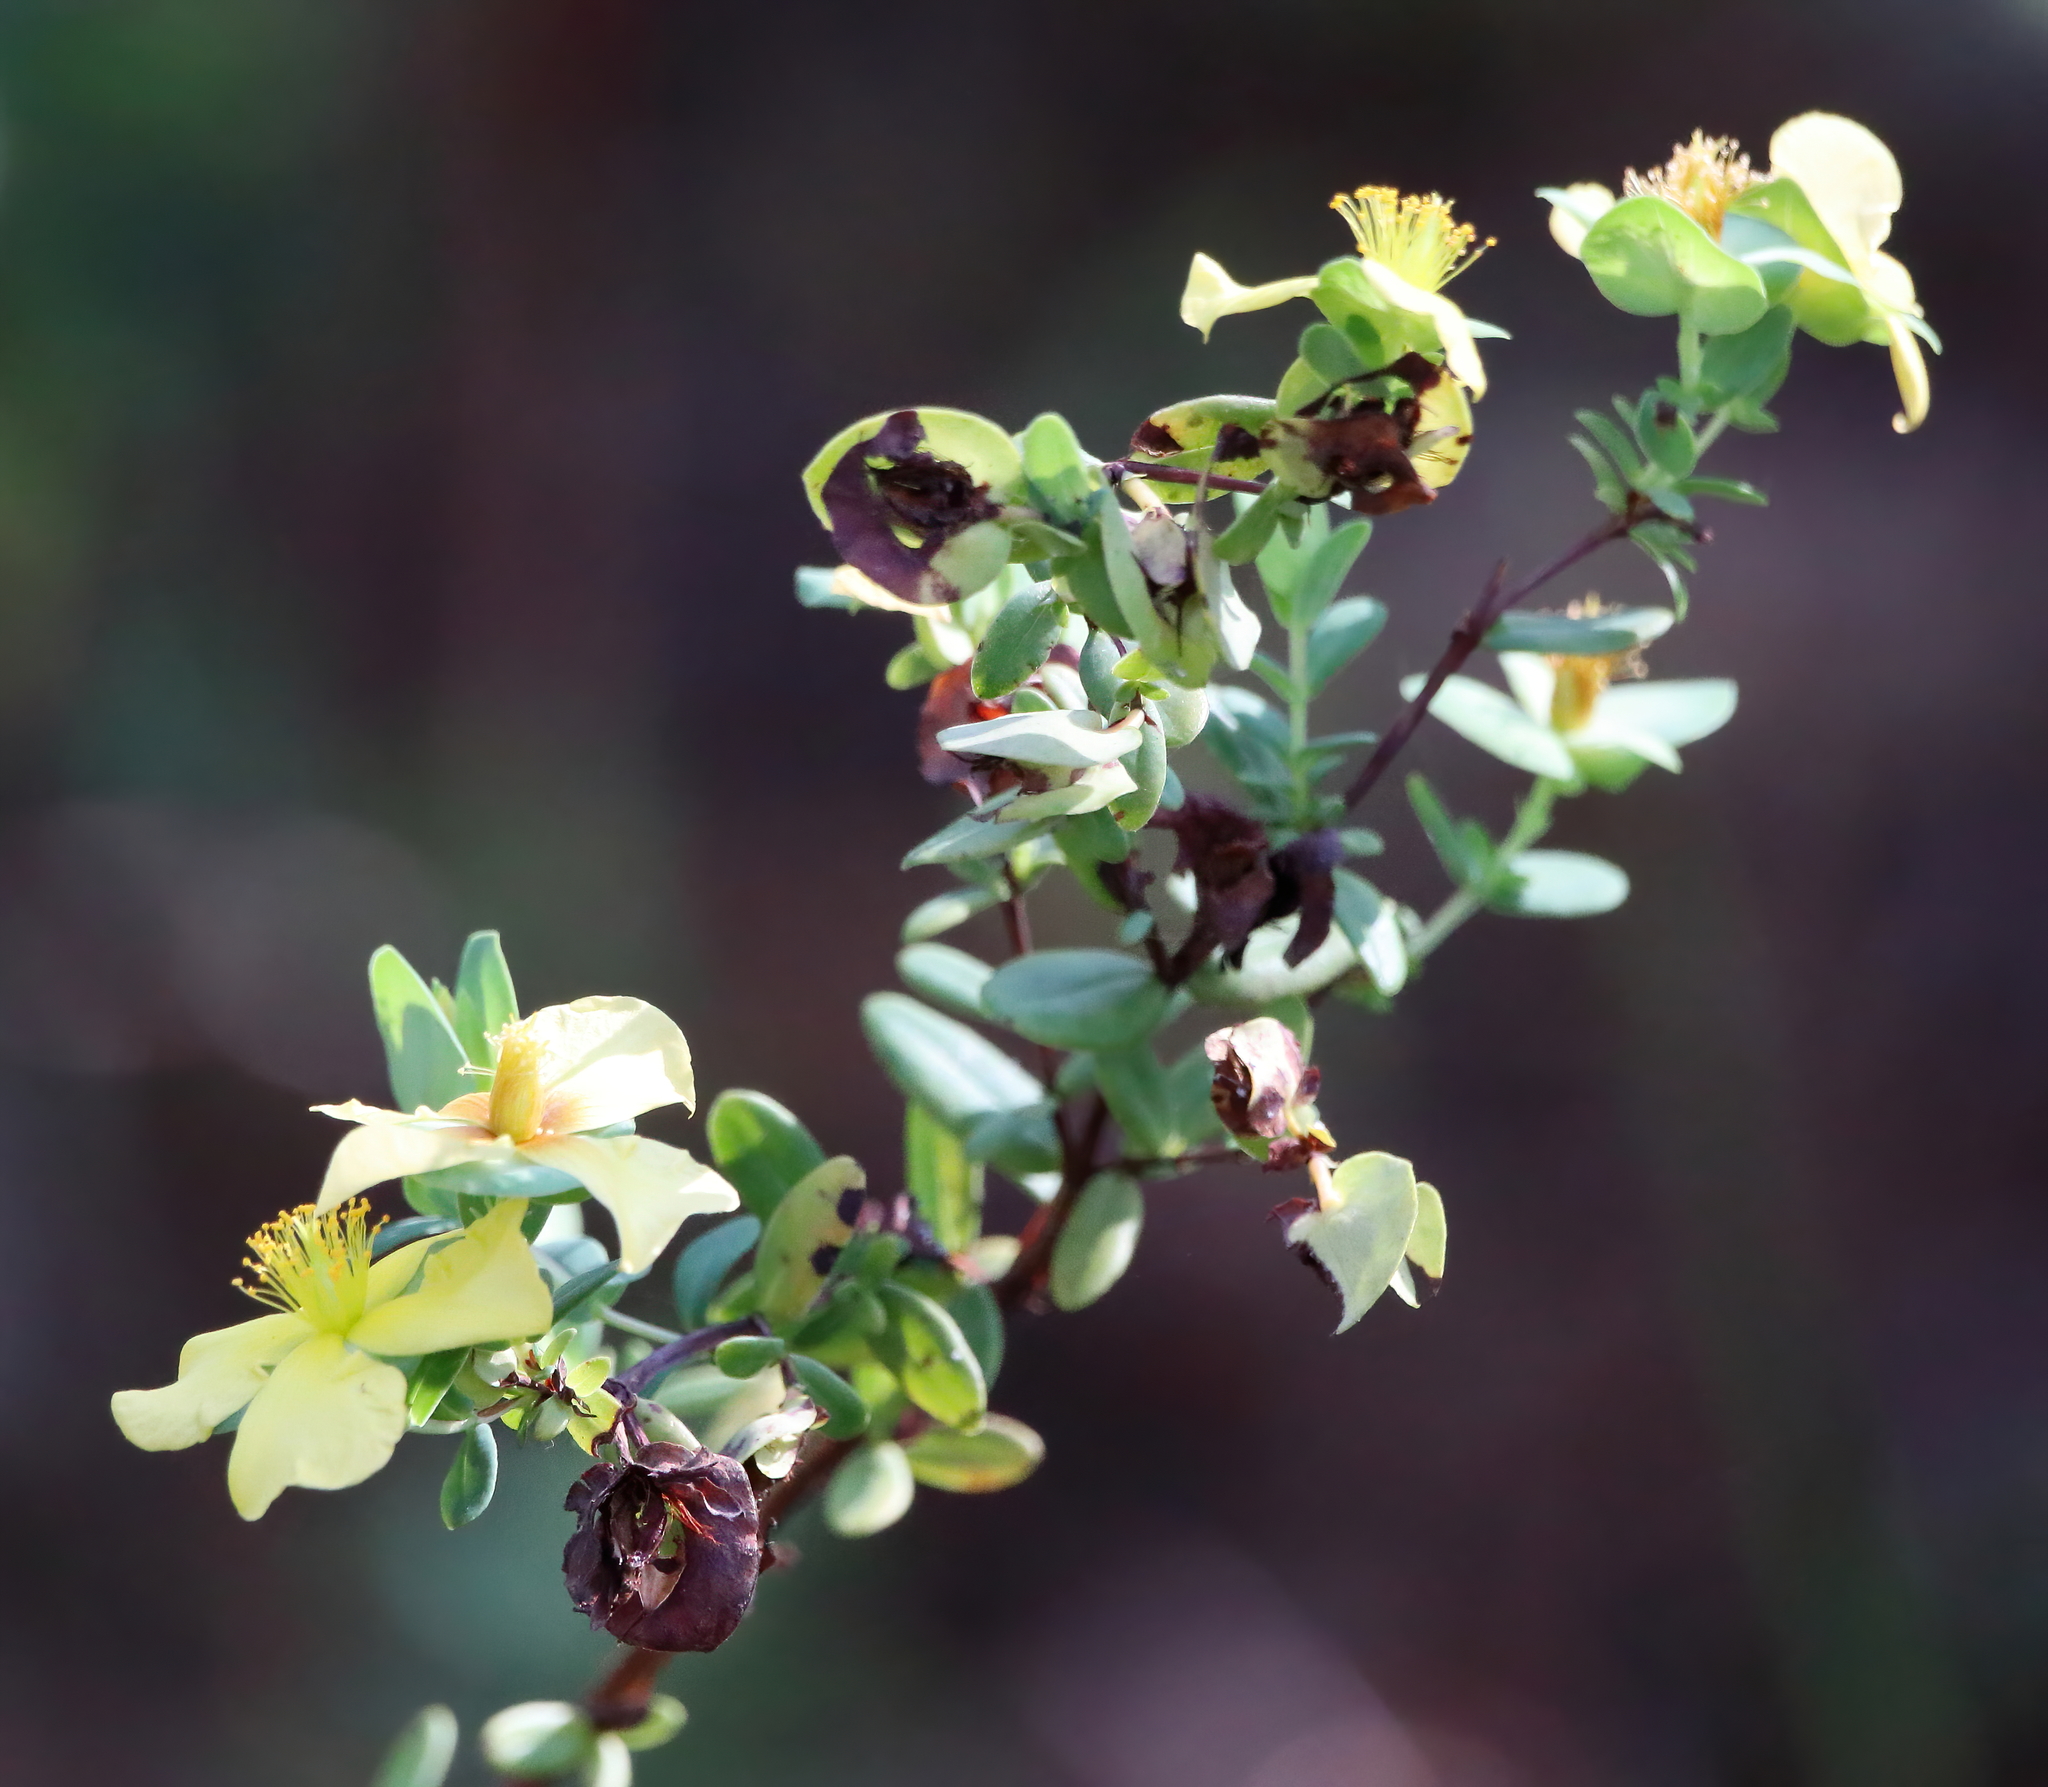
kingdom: Plantae
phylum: Tracheophyta
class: Magnoliopsida
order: Malpighiales
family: Hypericaceae
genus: Hypericum
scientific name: Hypericum crux-andreae
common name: St.-peter's-wort
